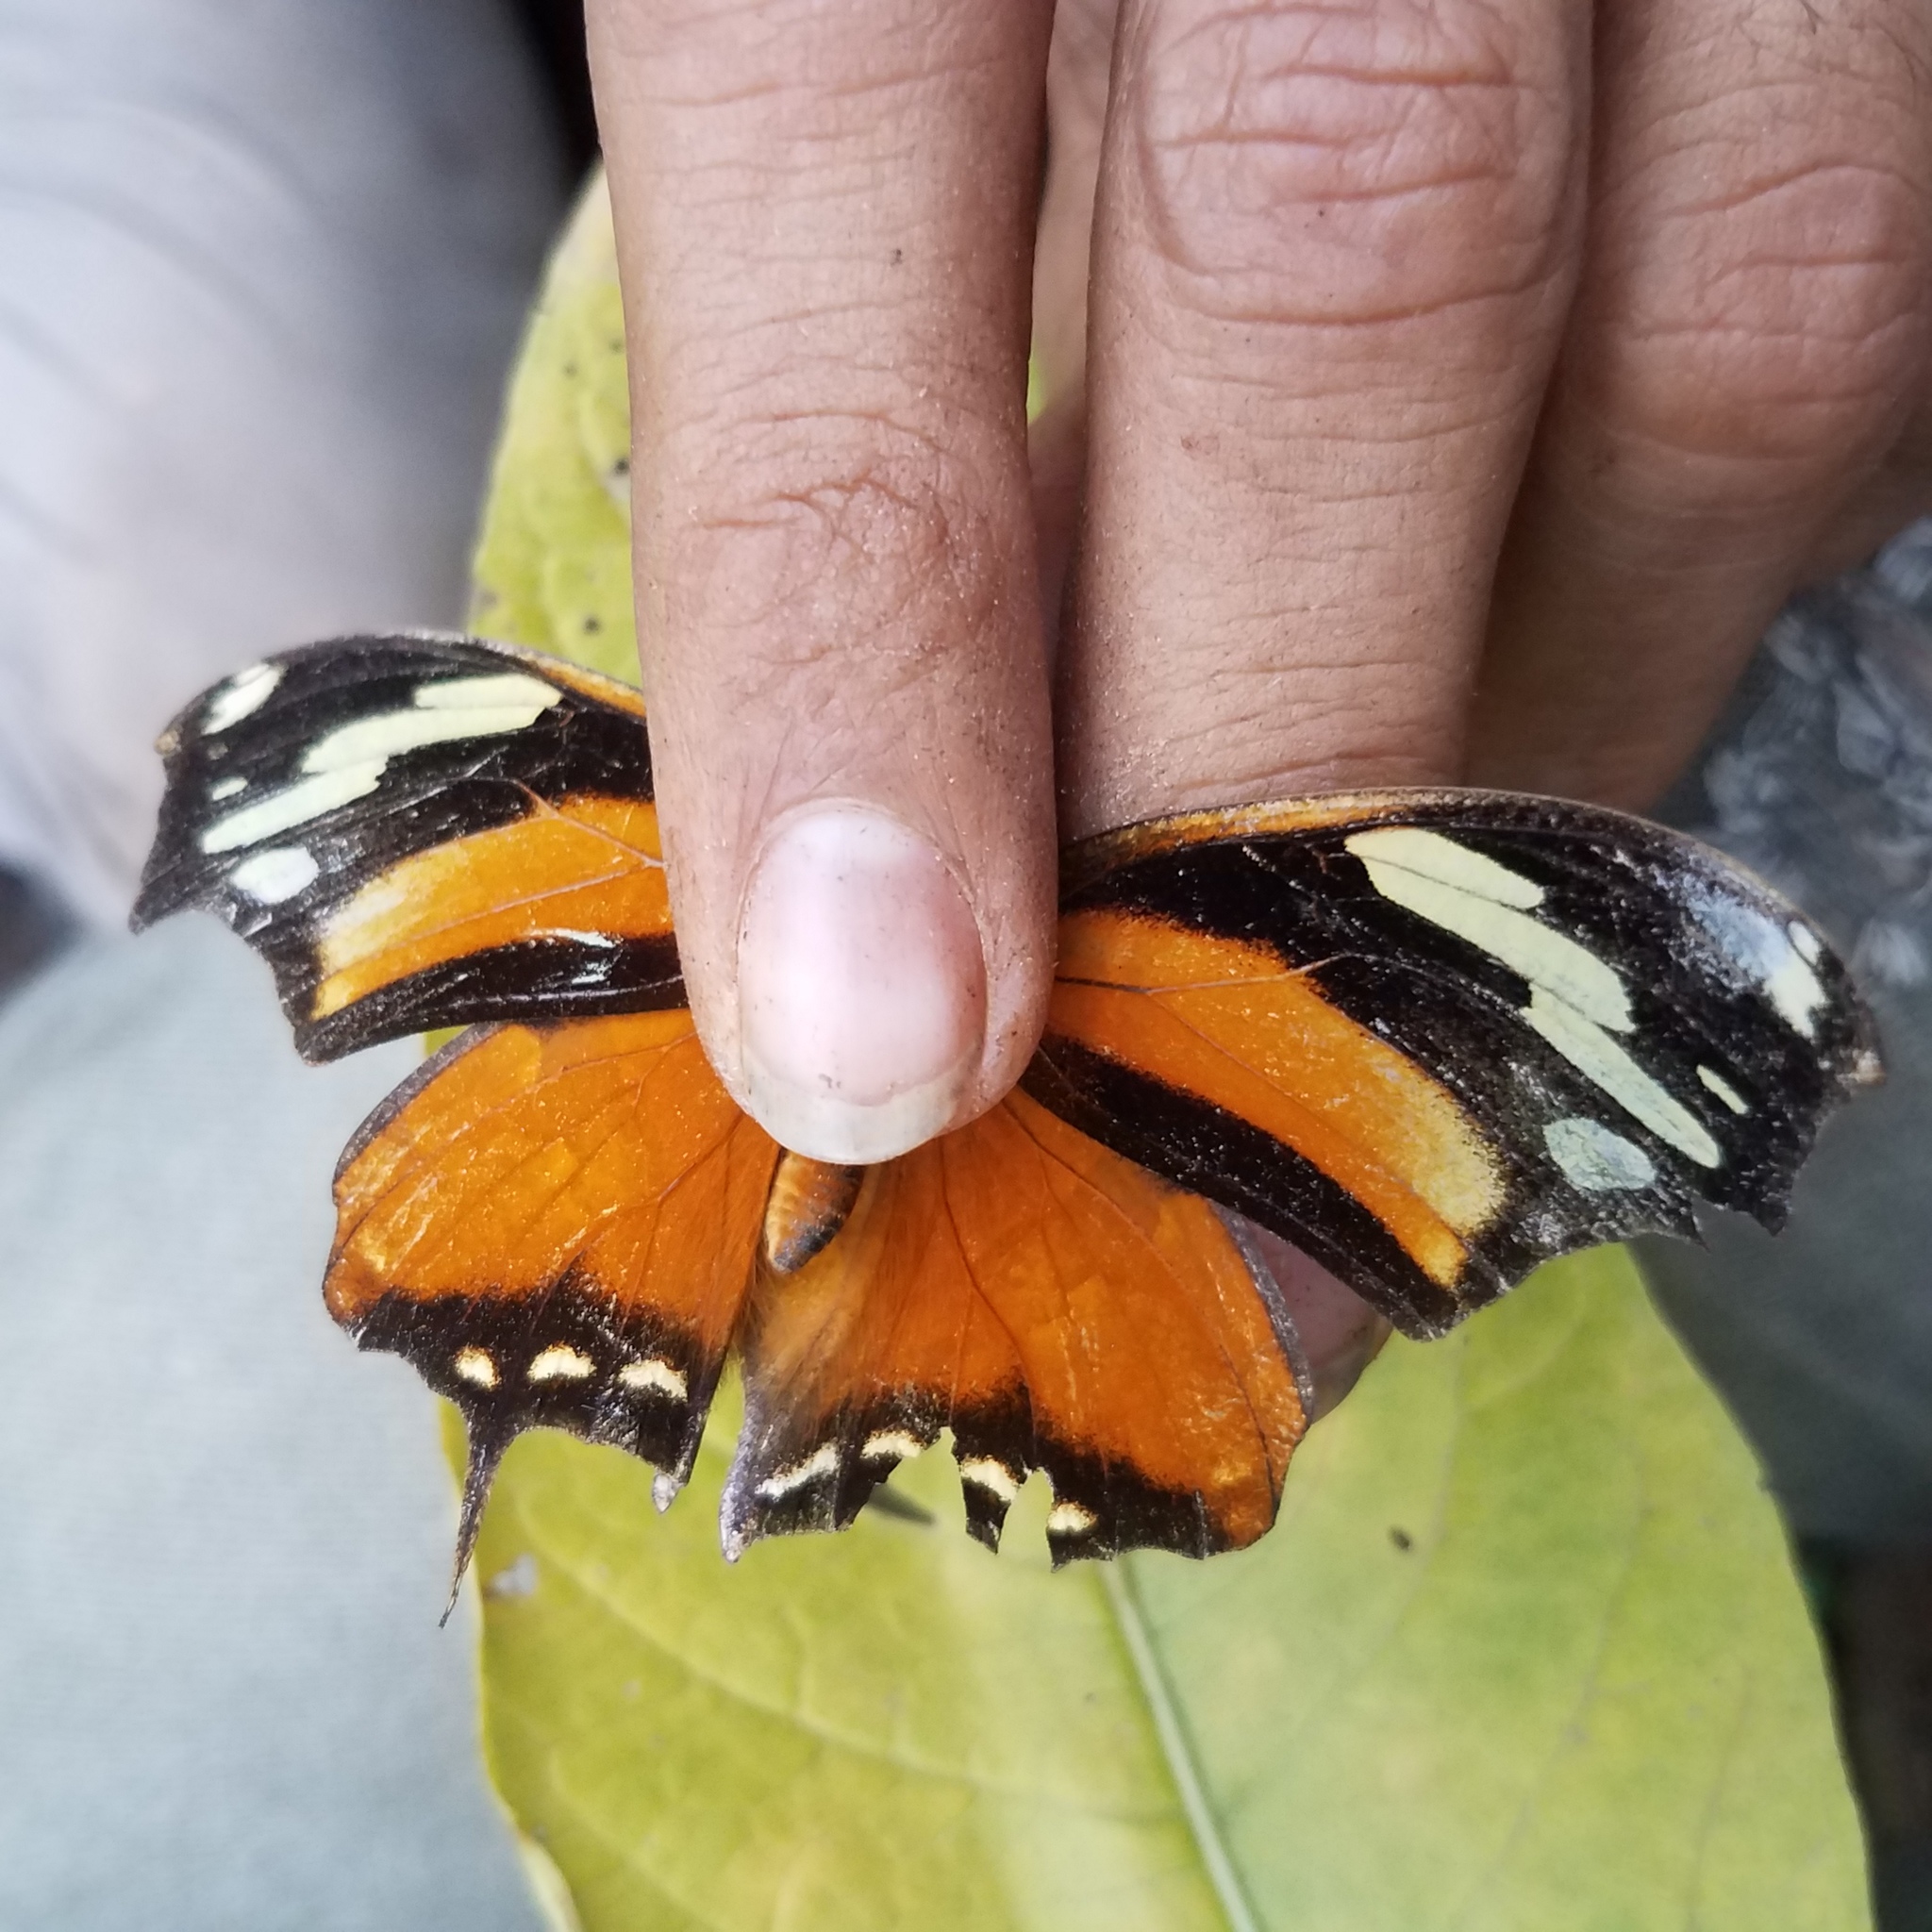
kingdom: Animalia
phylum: Arthropoda
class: Insecta
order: Lepidoptera
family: Nymphalidae
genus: Consul
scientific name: Consul fabius
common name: Tiger leafwing
